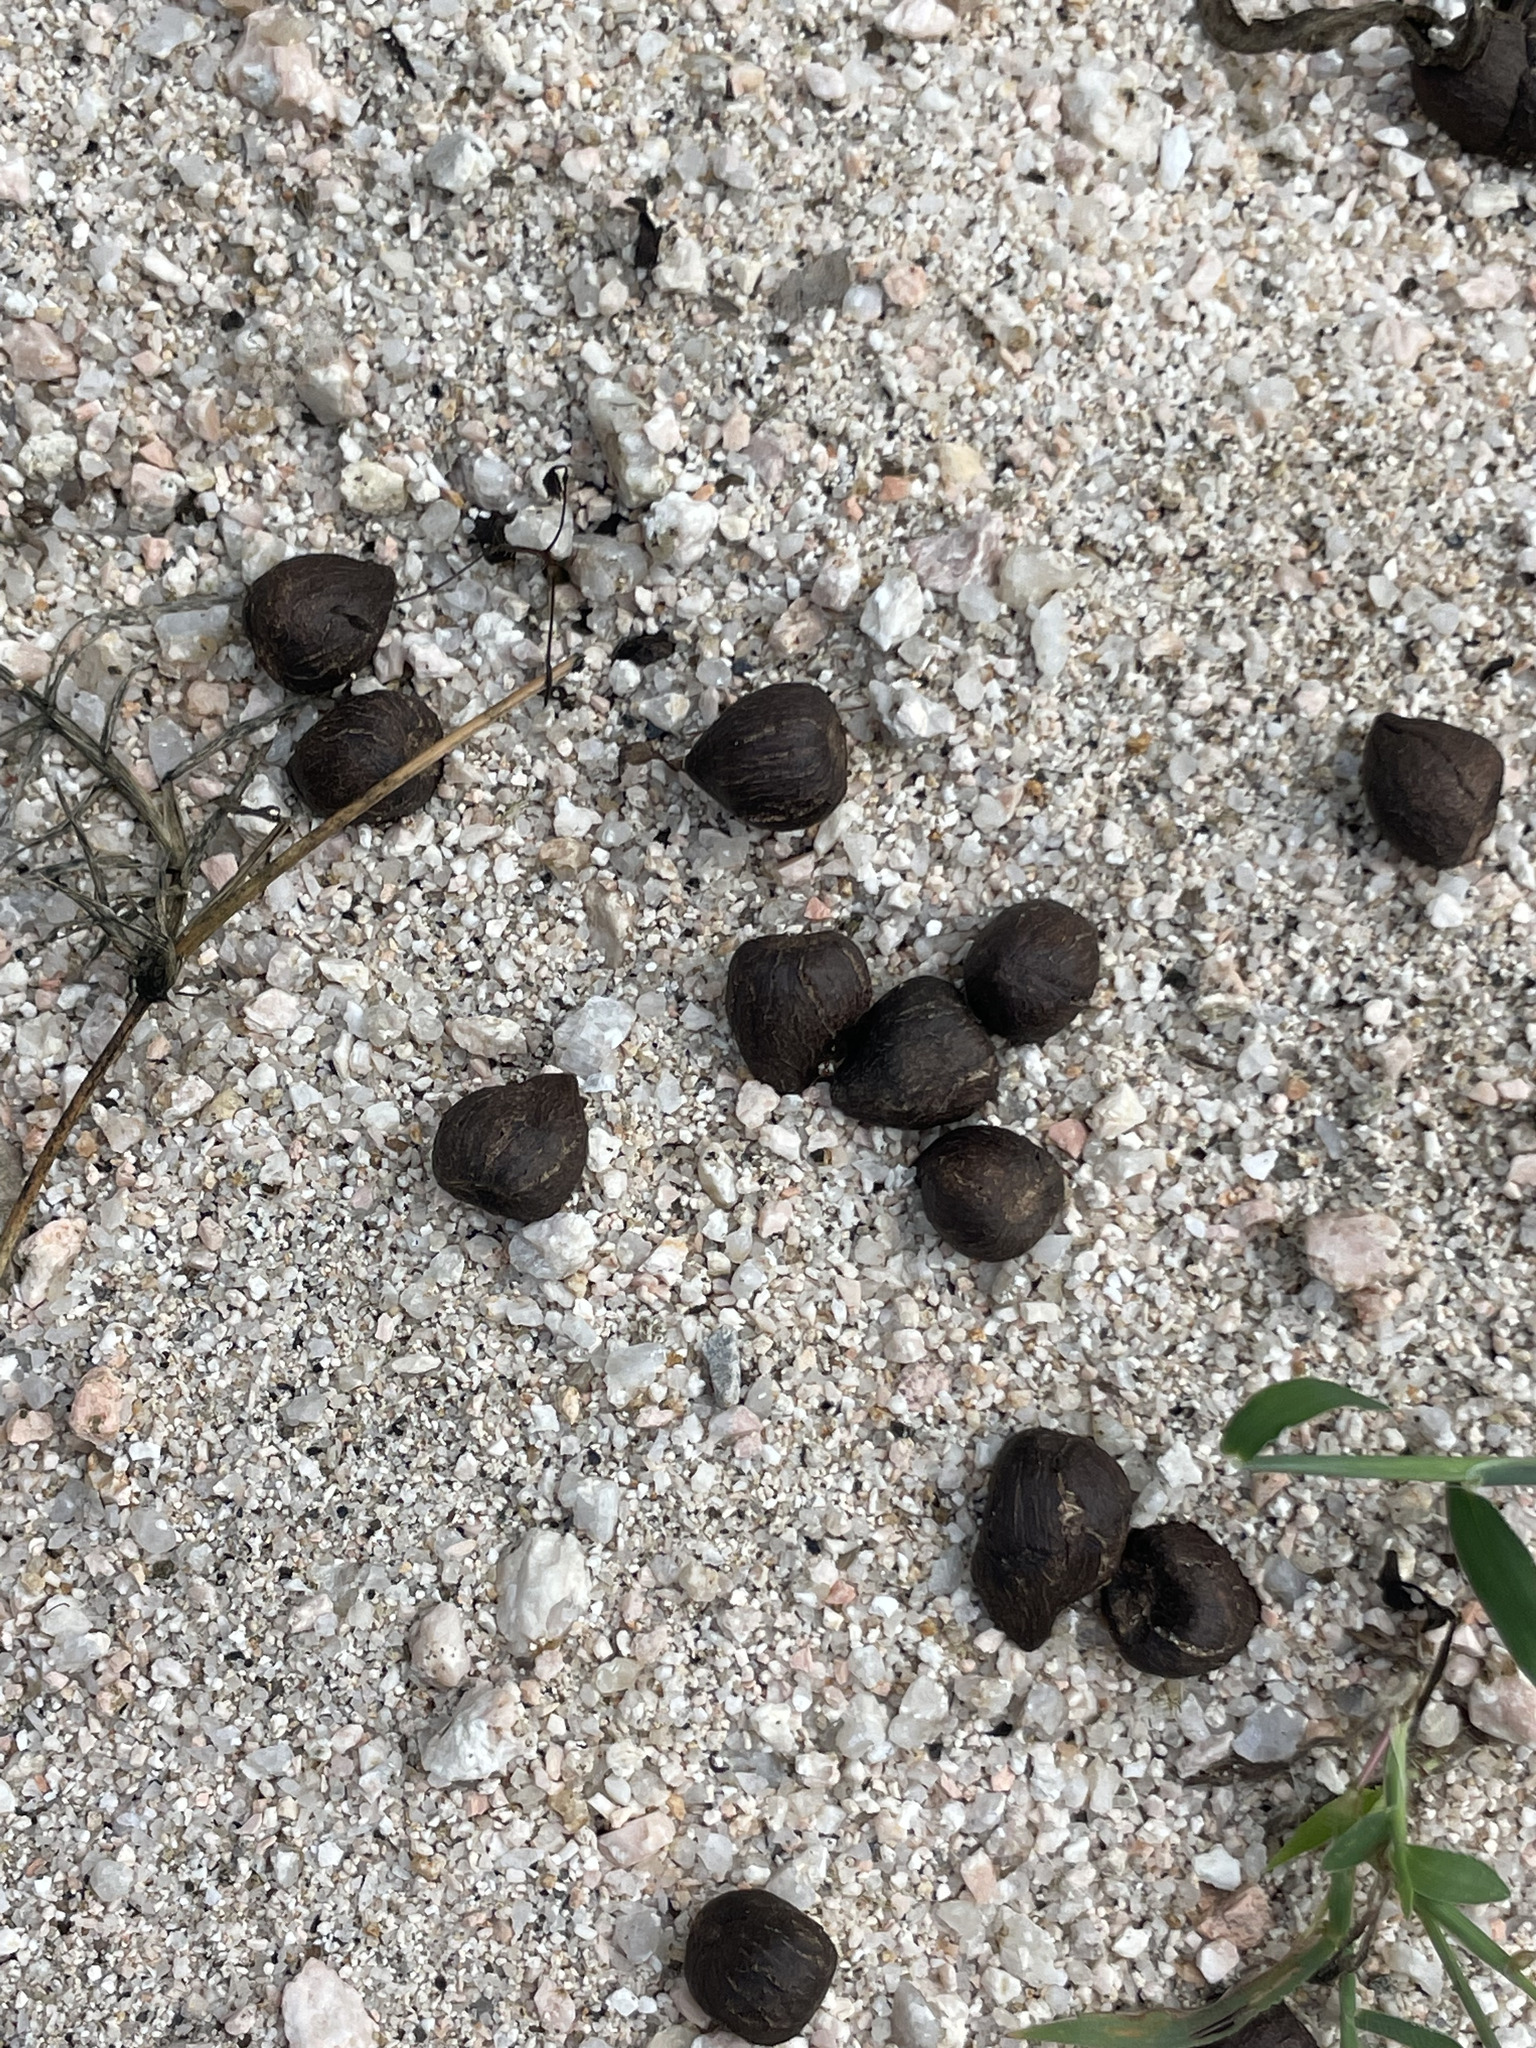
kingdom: Animalia
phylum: Chordata
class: Mammalia
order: Artiodactyla
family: Bovidae
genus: Capra
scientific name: Capra hircus
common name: Domestic goat
